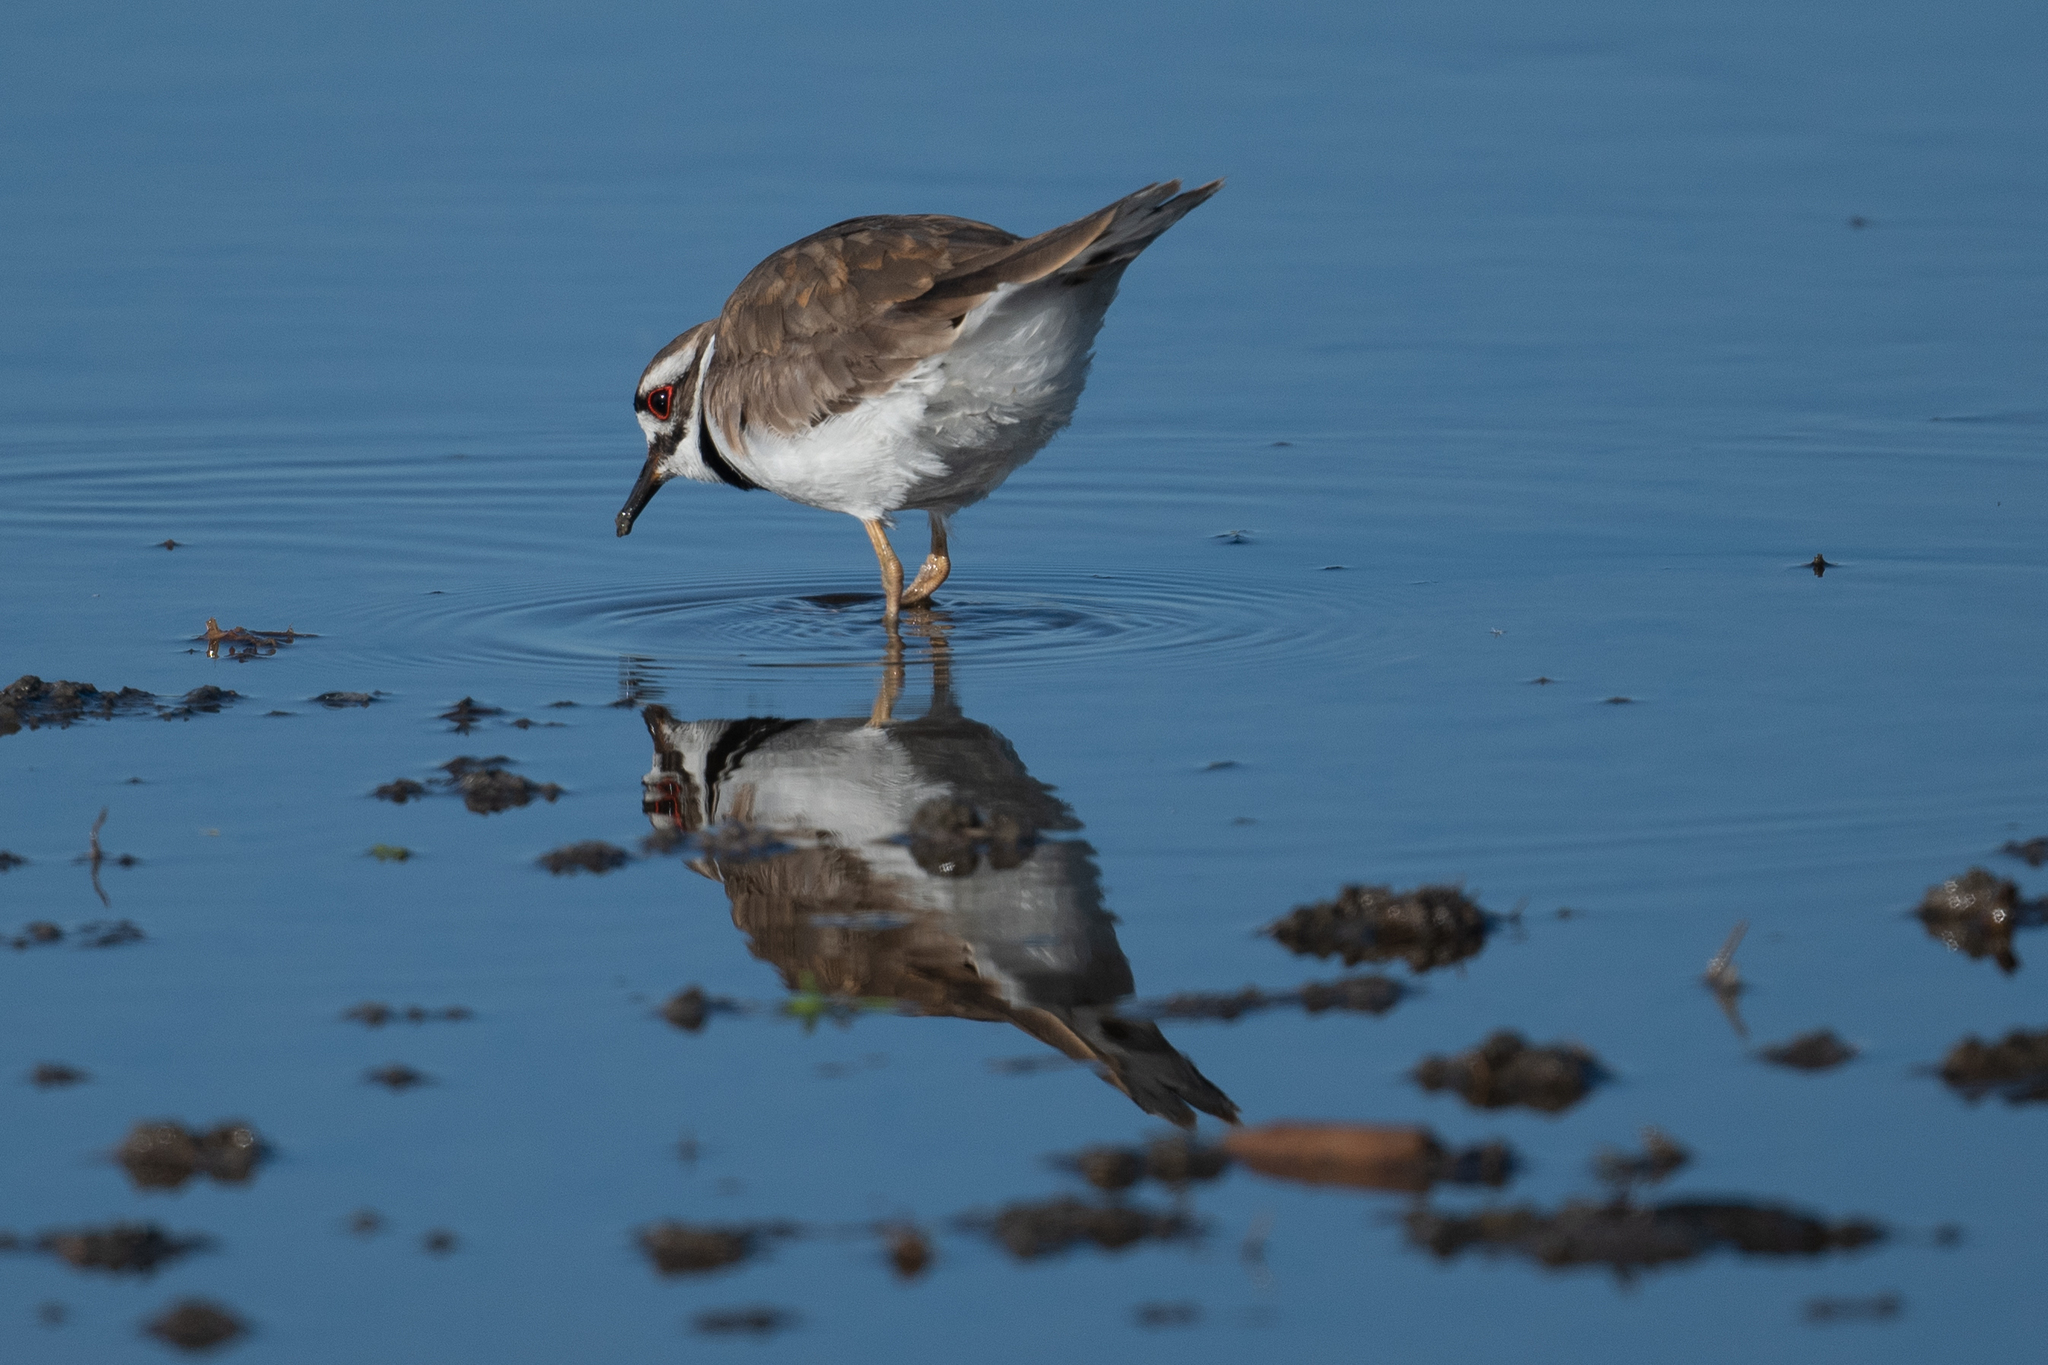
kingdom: Animalia
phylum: Chordata
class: Aves
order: Charadriiformes
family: Charadriidae
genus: Charadrius
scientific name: Charadrius vociferus
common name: Killdeer
